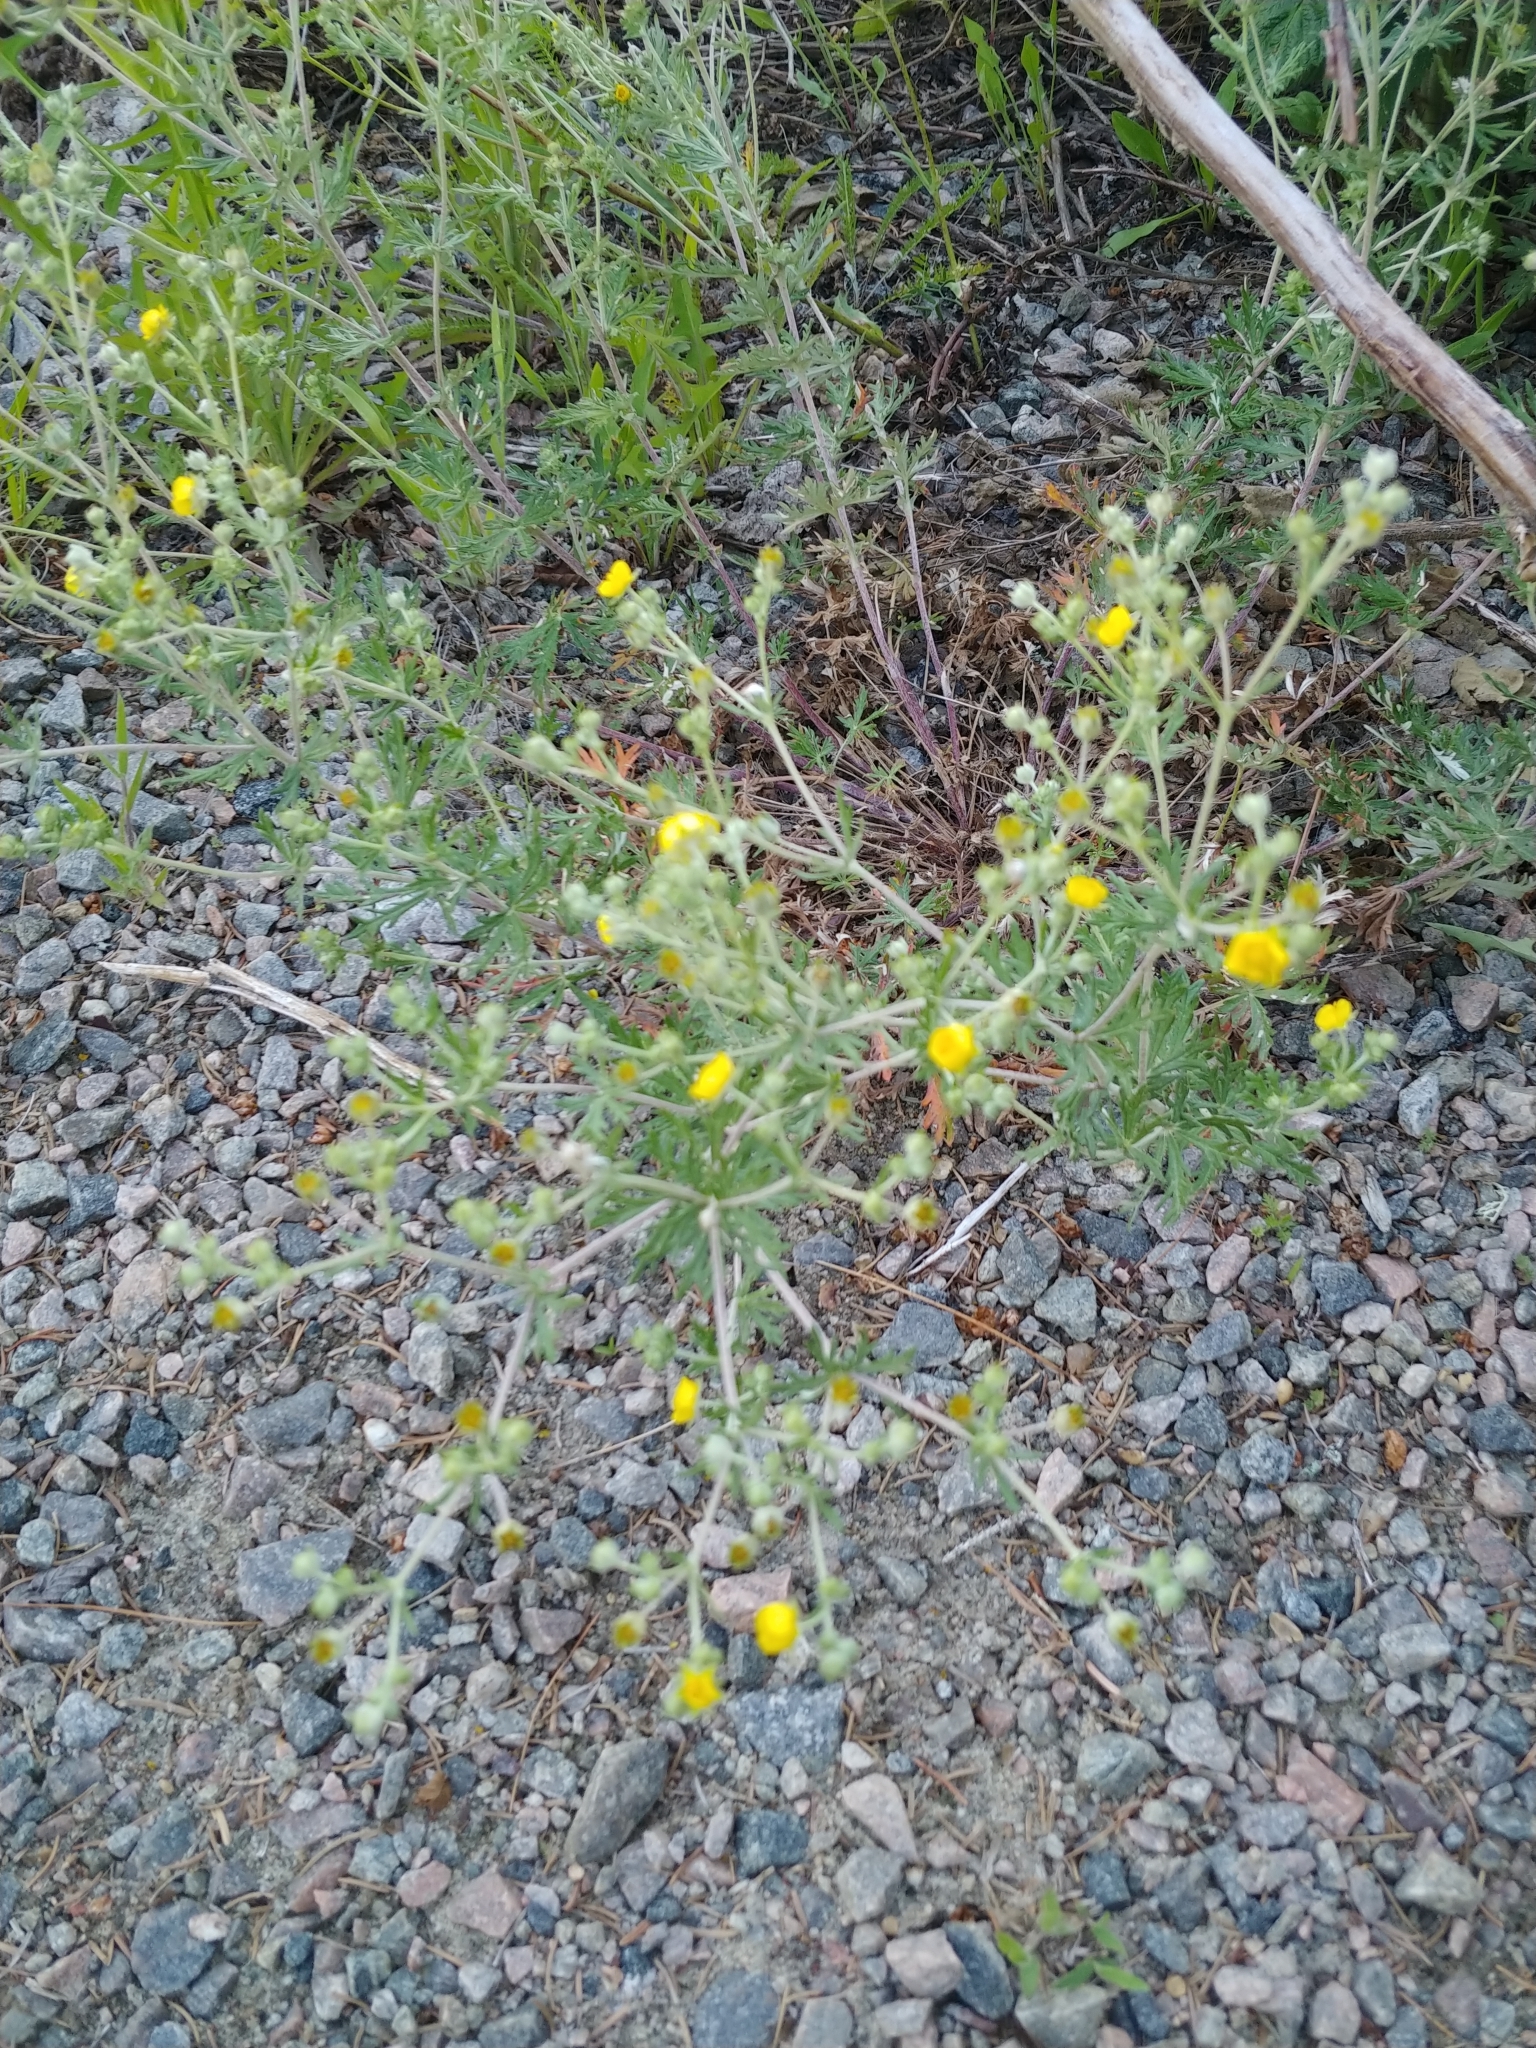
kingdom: Plantae
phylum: Tracheophyta
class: Magnoliopsida
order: Rosales
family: Rosaceae
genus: Potentilla
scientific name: Potentilla argentea
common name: Hoary cinquefoil
